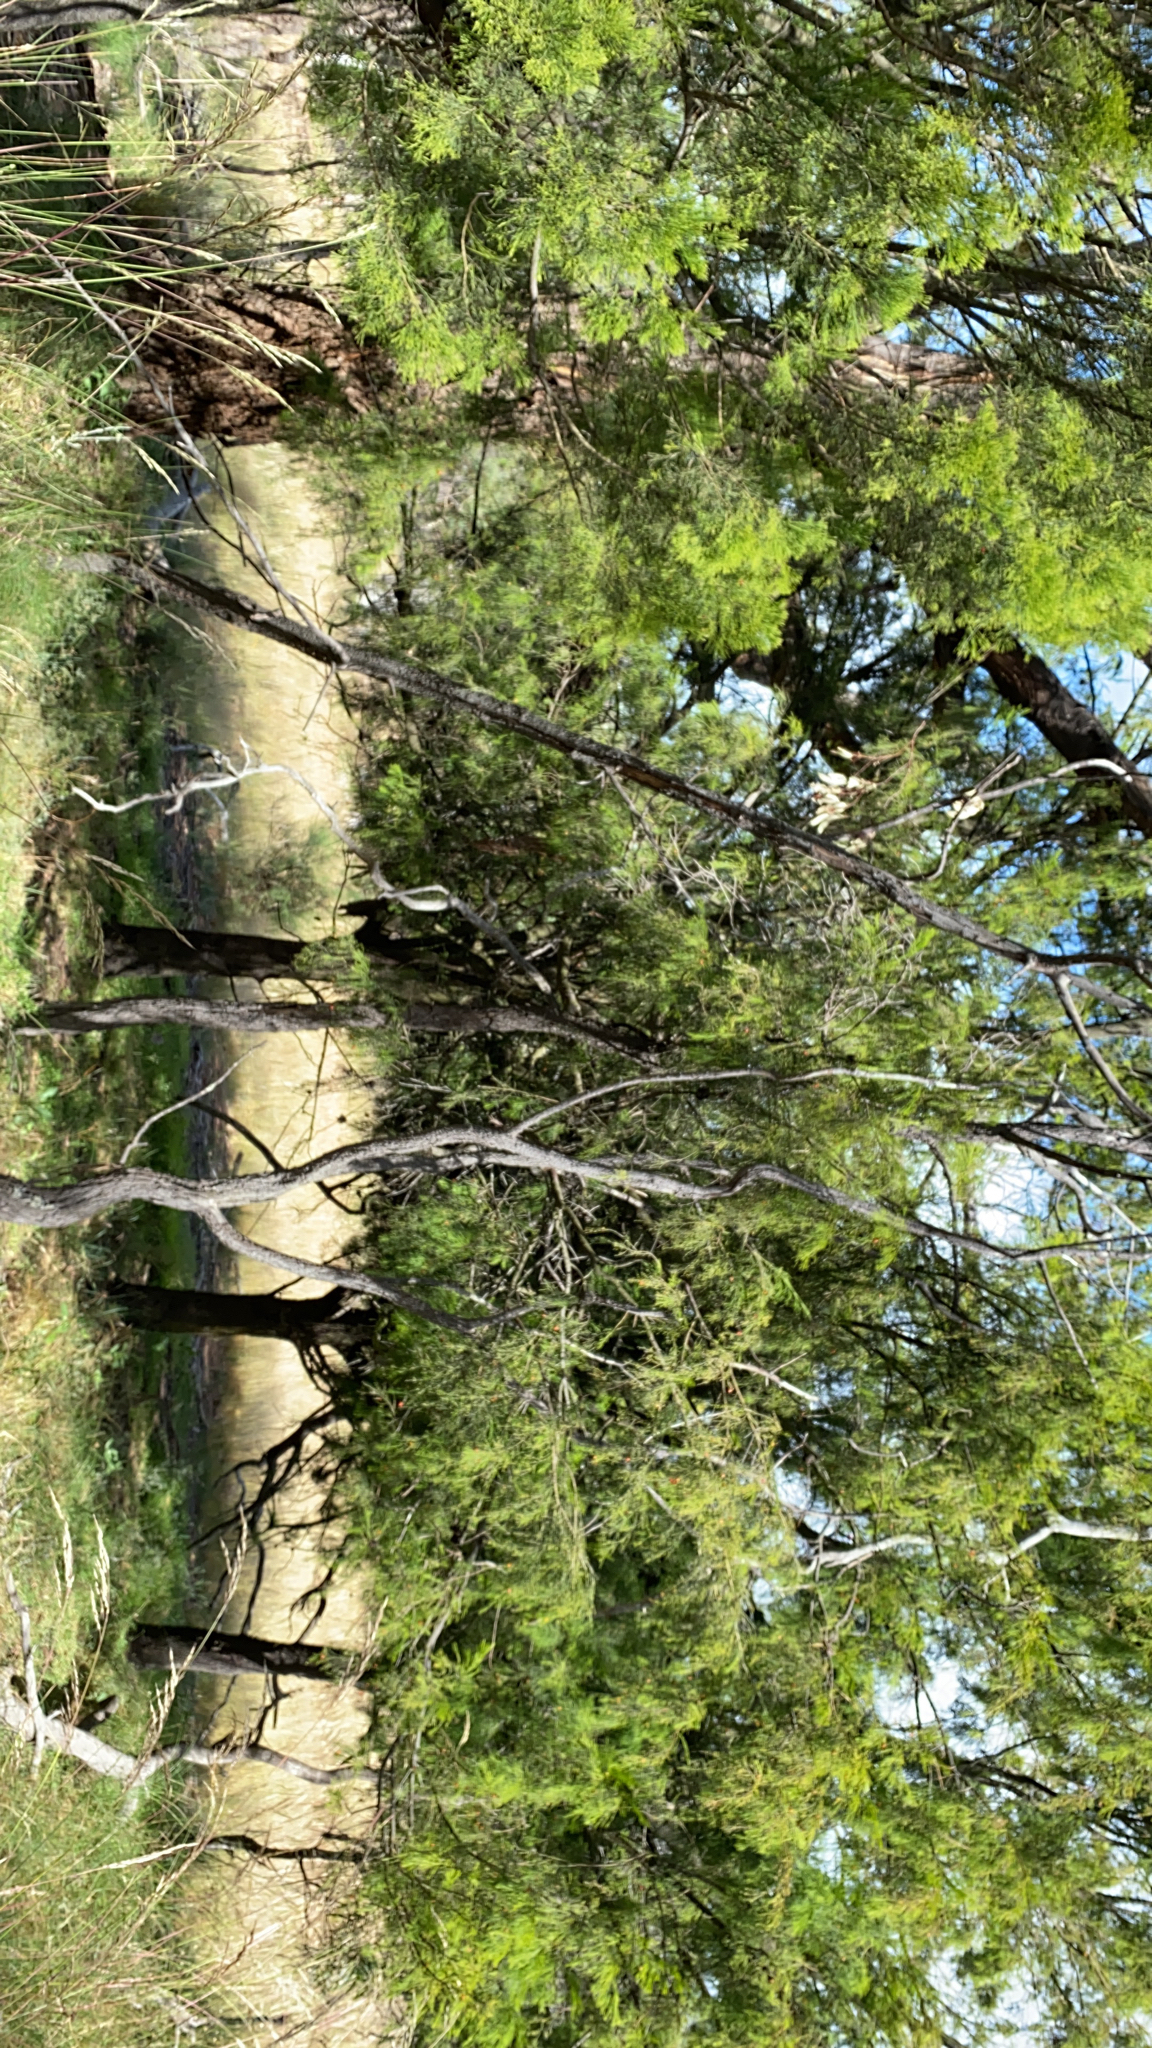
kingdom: Plantae
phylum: Tracheophyta
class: Magnoliopsida
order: Santalales
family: Santalaceae
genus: Exocarpos
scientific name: Exocarpos cupressiformis
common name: Cherry ballart
